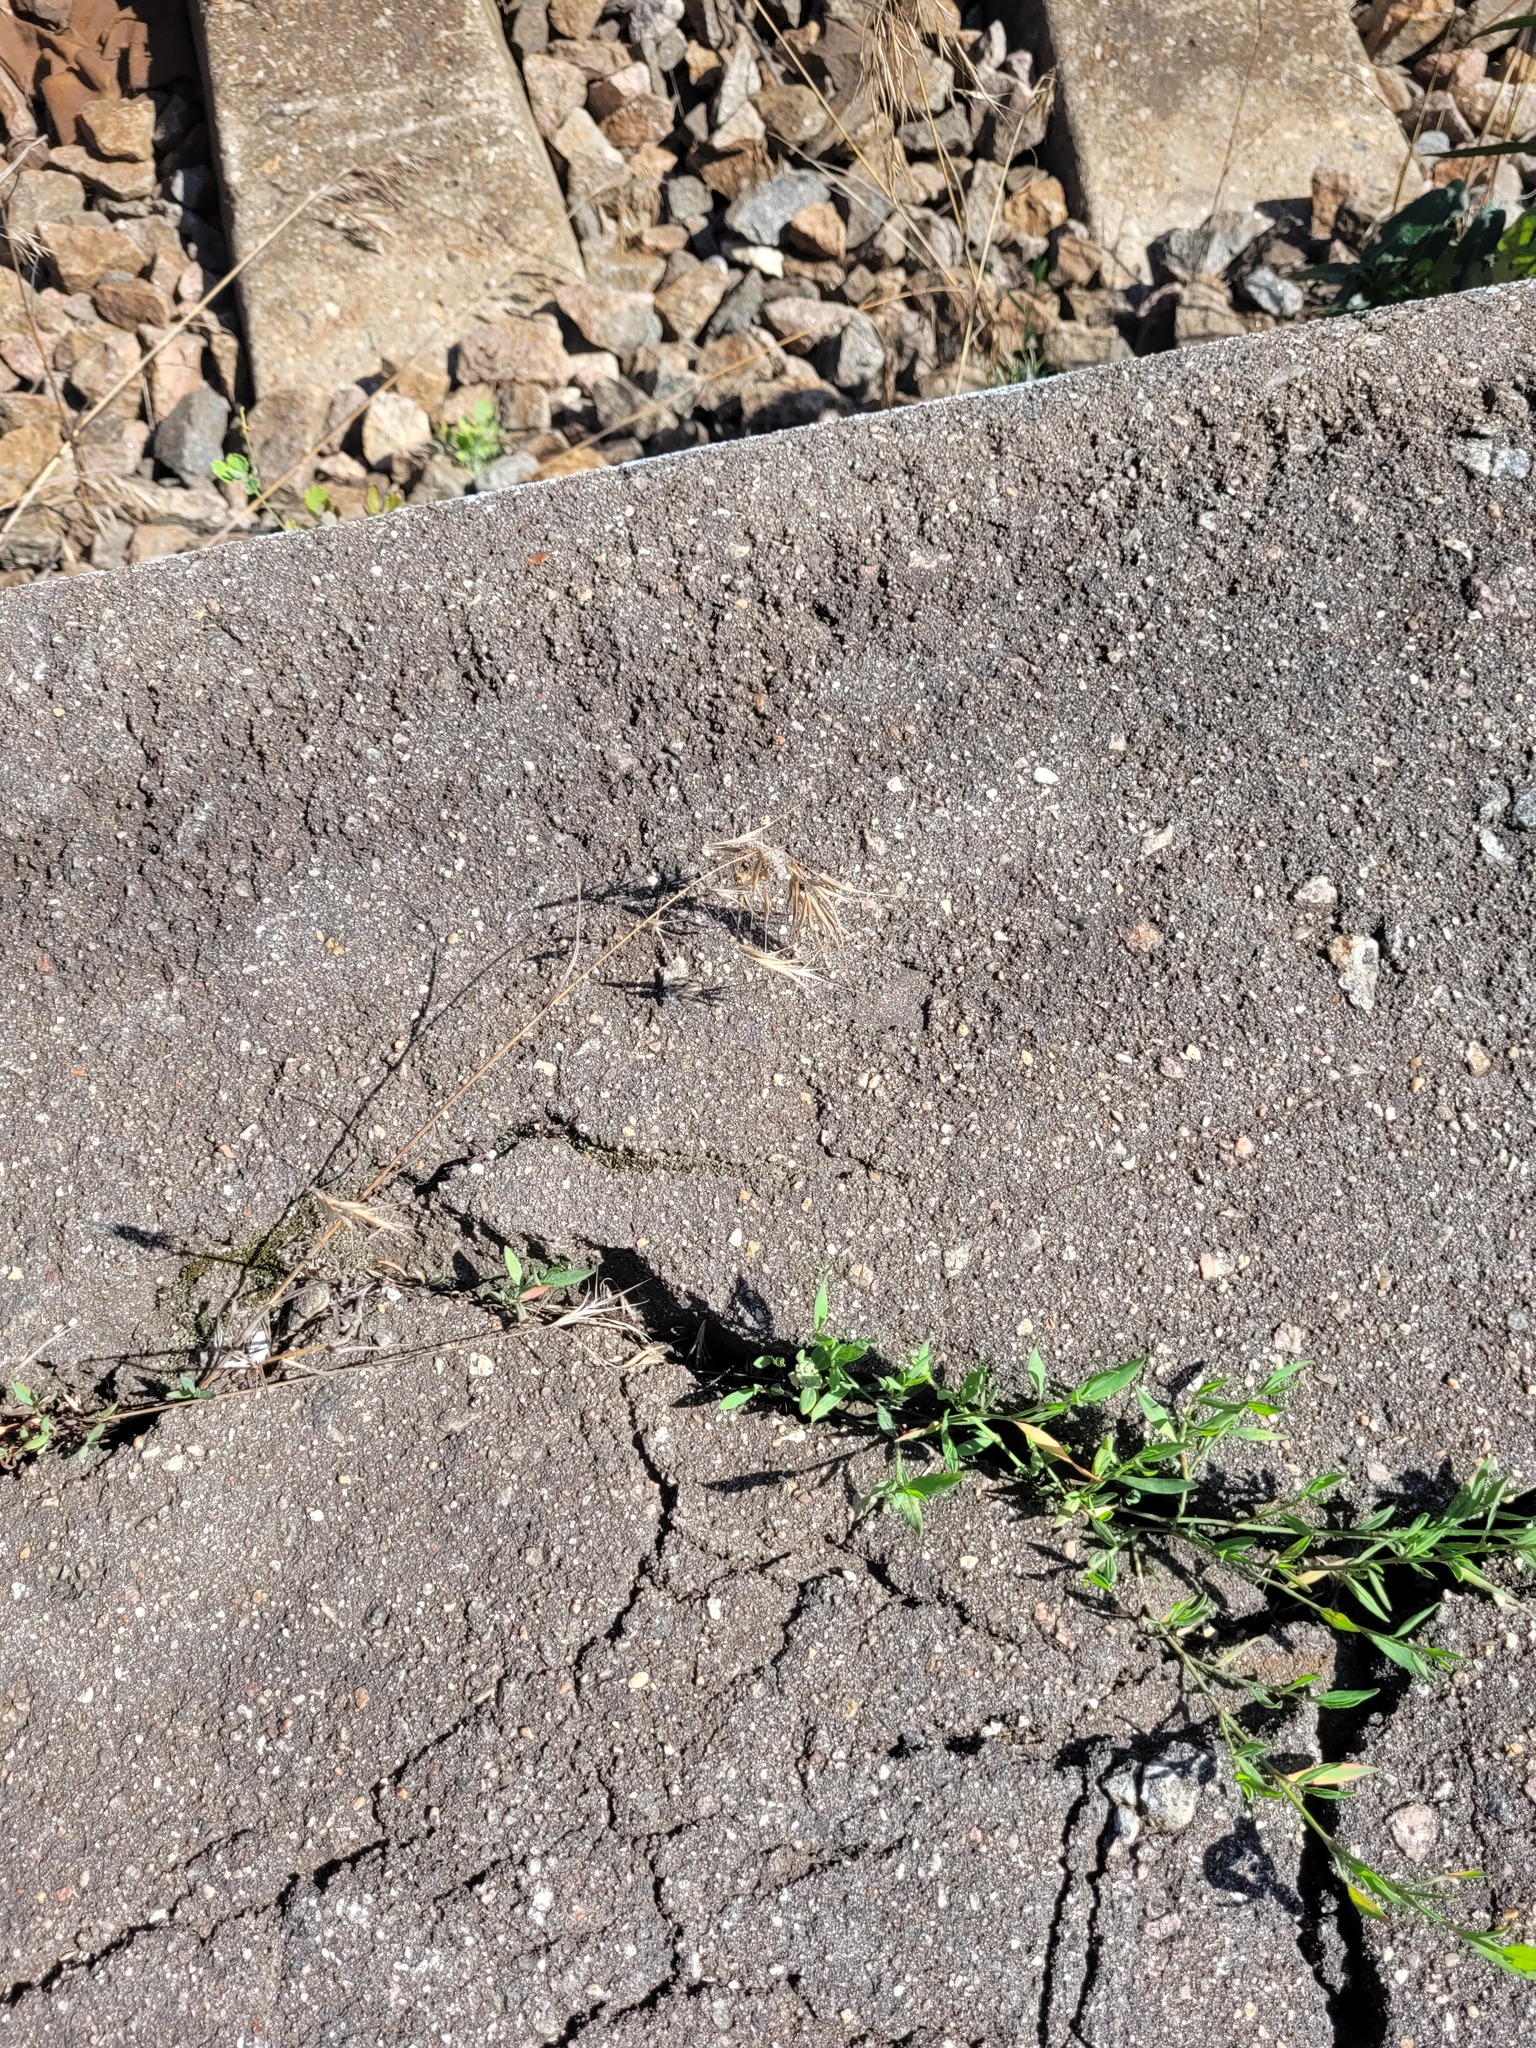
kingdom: Plantae
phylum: Tracheophyta
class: Liliopsida
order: Poales
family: Poaceae
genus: Bromus
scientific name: Bromus tectorum
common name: Cheatgrass
